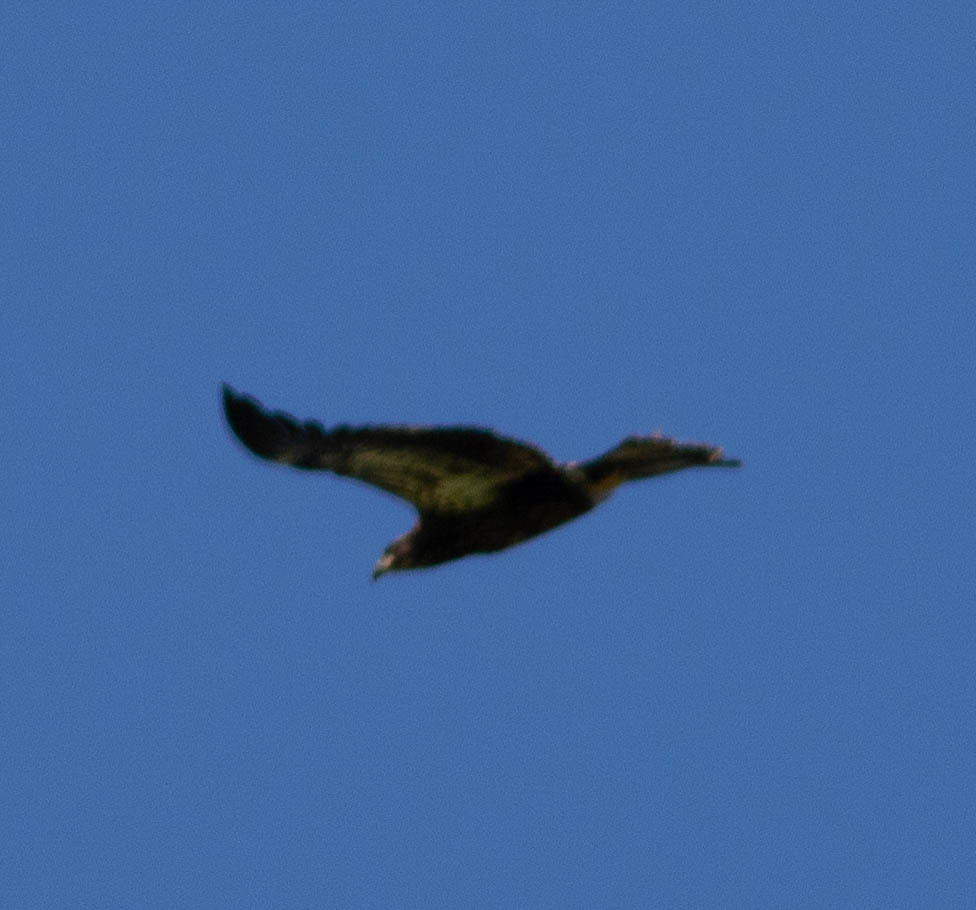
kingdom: Animalia
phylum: Chordata
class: Aves
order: Accipitriformes
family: Accipitridae
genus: Haliaeetus
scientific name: Haliaeetus leucocephalus
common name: Bald eagle
